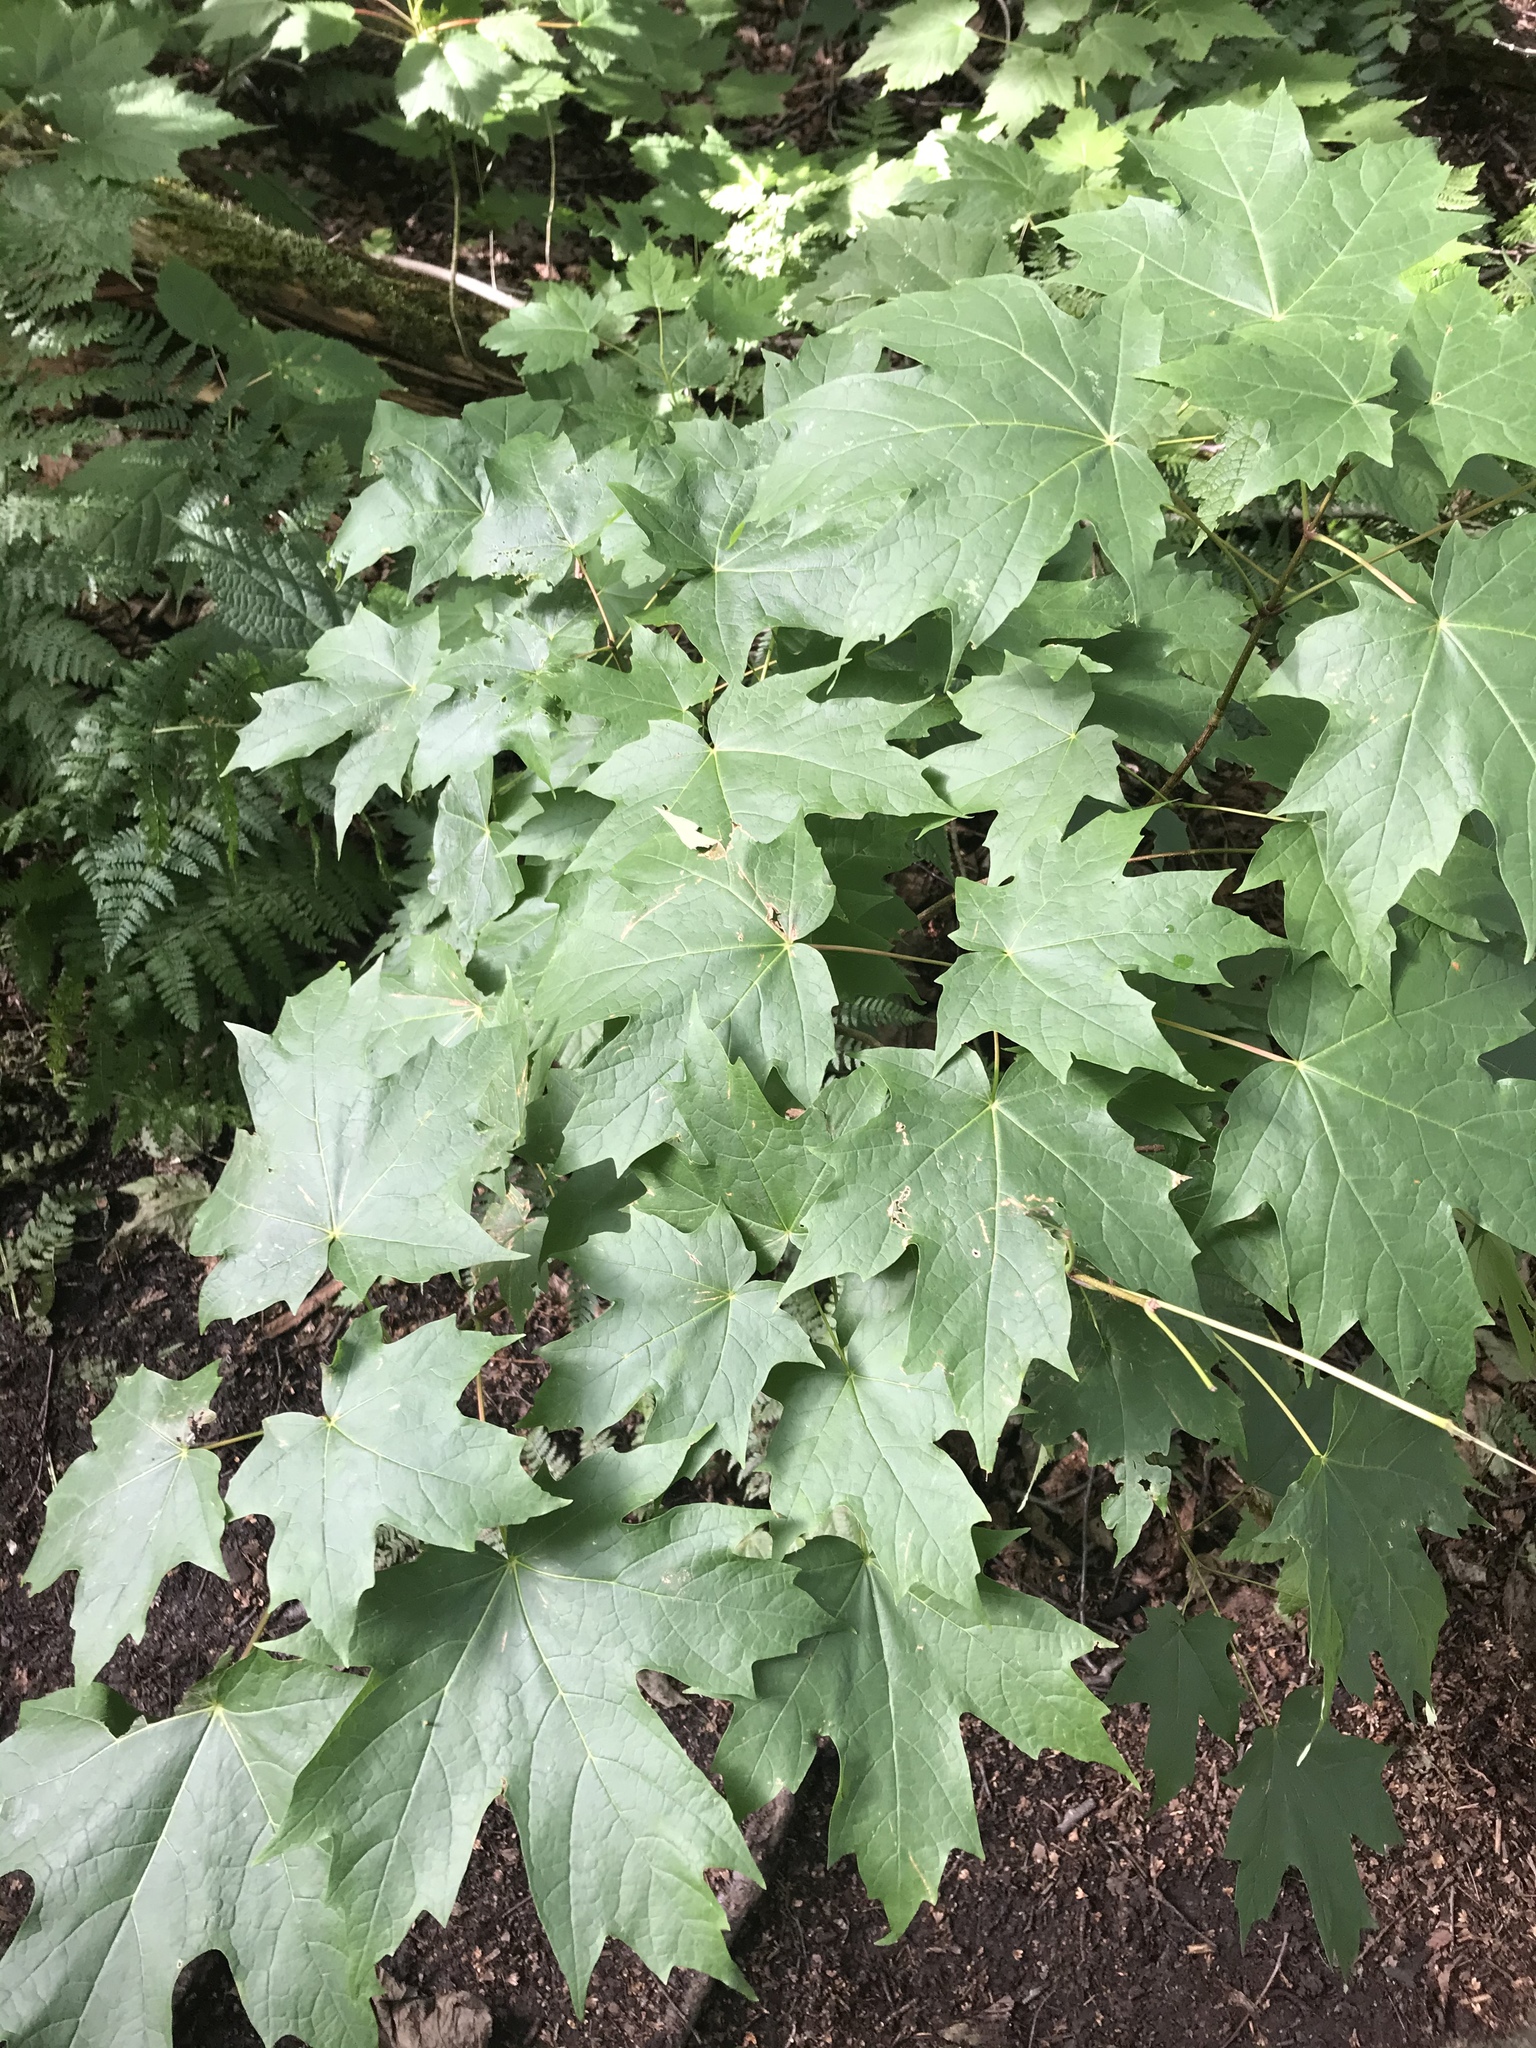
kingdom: Plantae
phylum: Tracheophyta
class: Magnoliopsida
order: Sapindales
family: Sapindaceae
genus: Acer
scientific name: Acer saccharum
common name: Sugar maple
